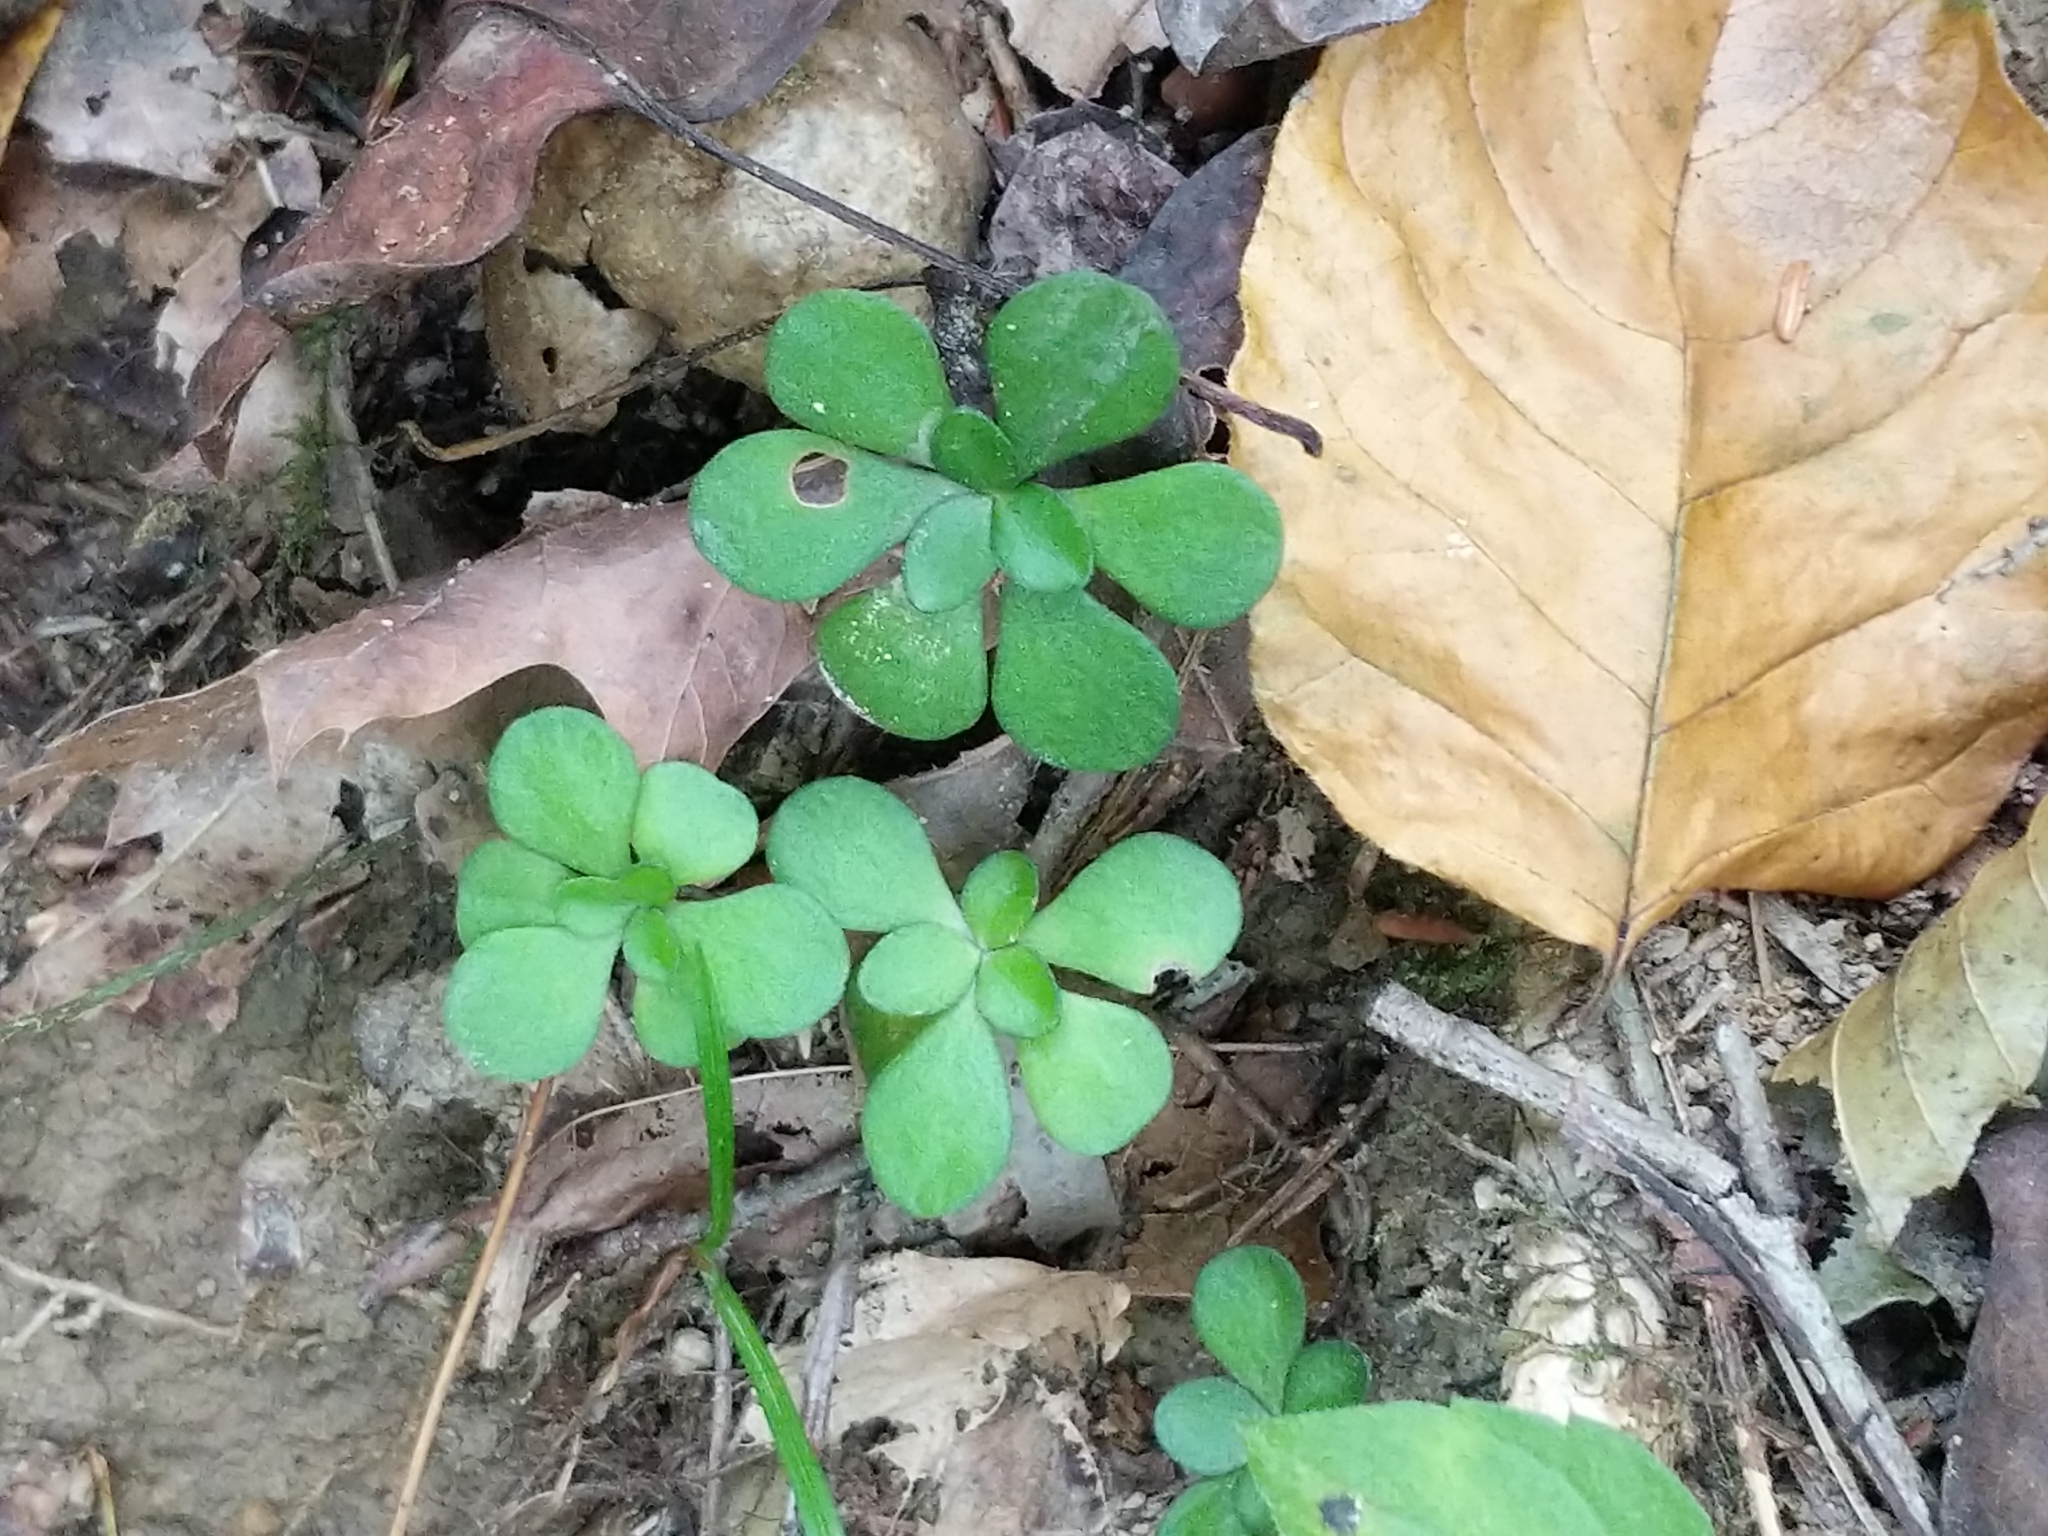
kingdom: Plantae
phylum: Tracheophyta
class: Magnoliopsida
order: Saxifragales
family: Crassulaceae
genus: Sedum
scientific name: Sedum ternatum
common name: Wild stonecrop
